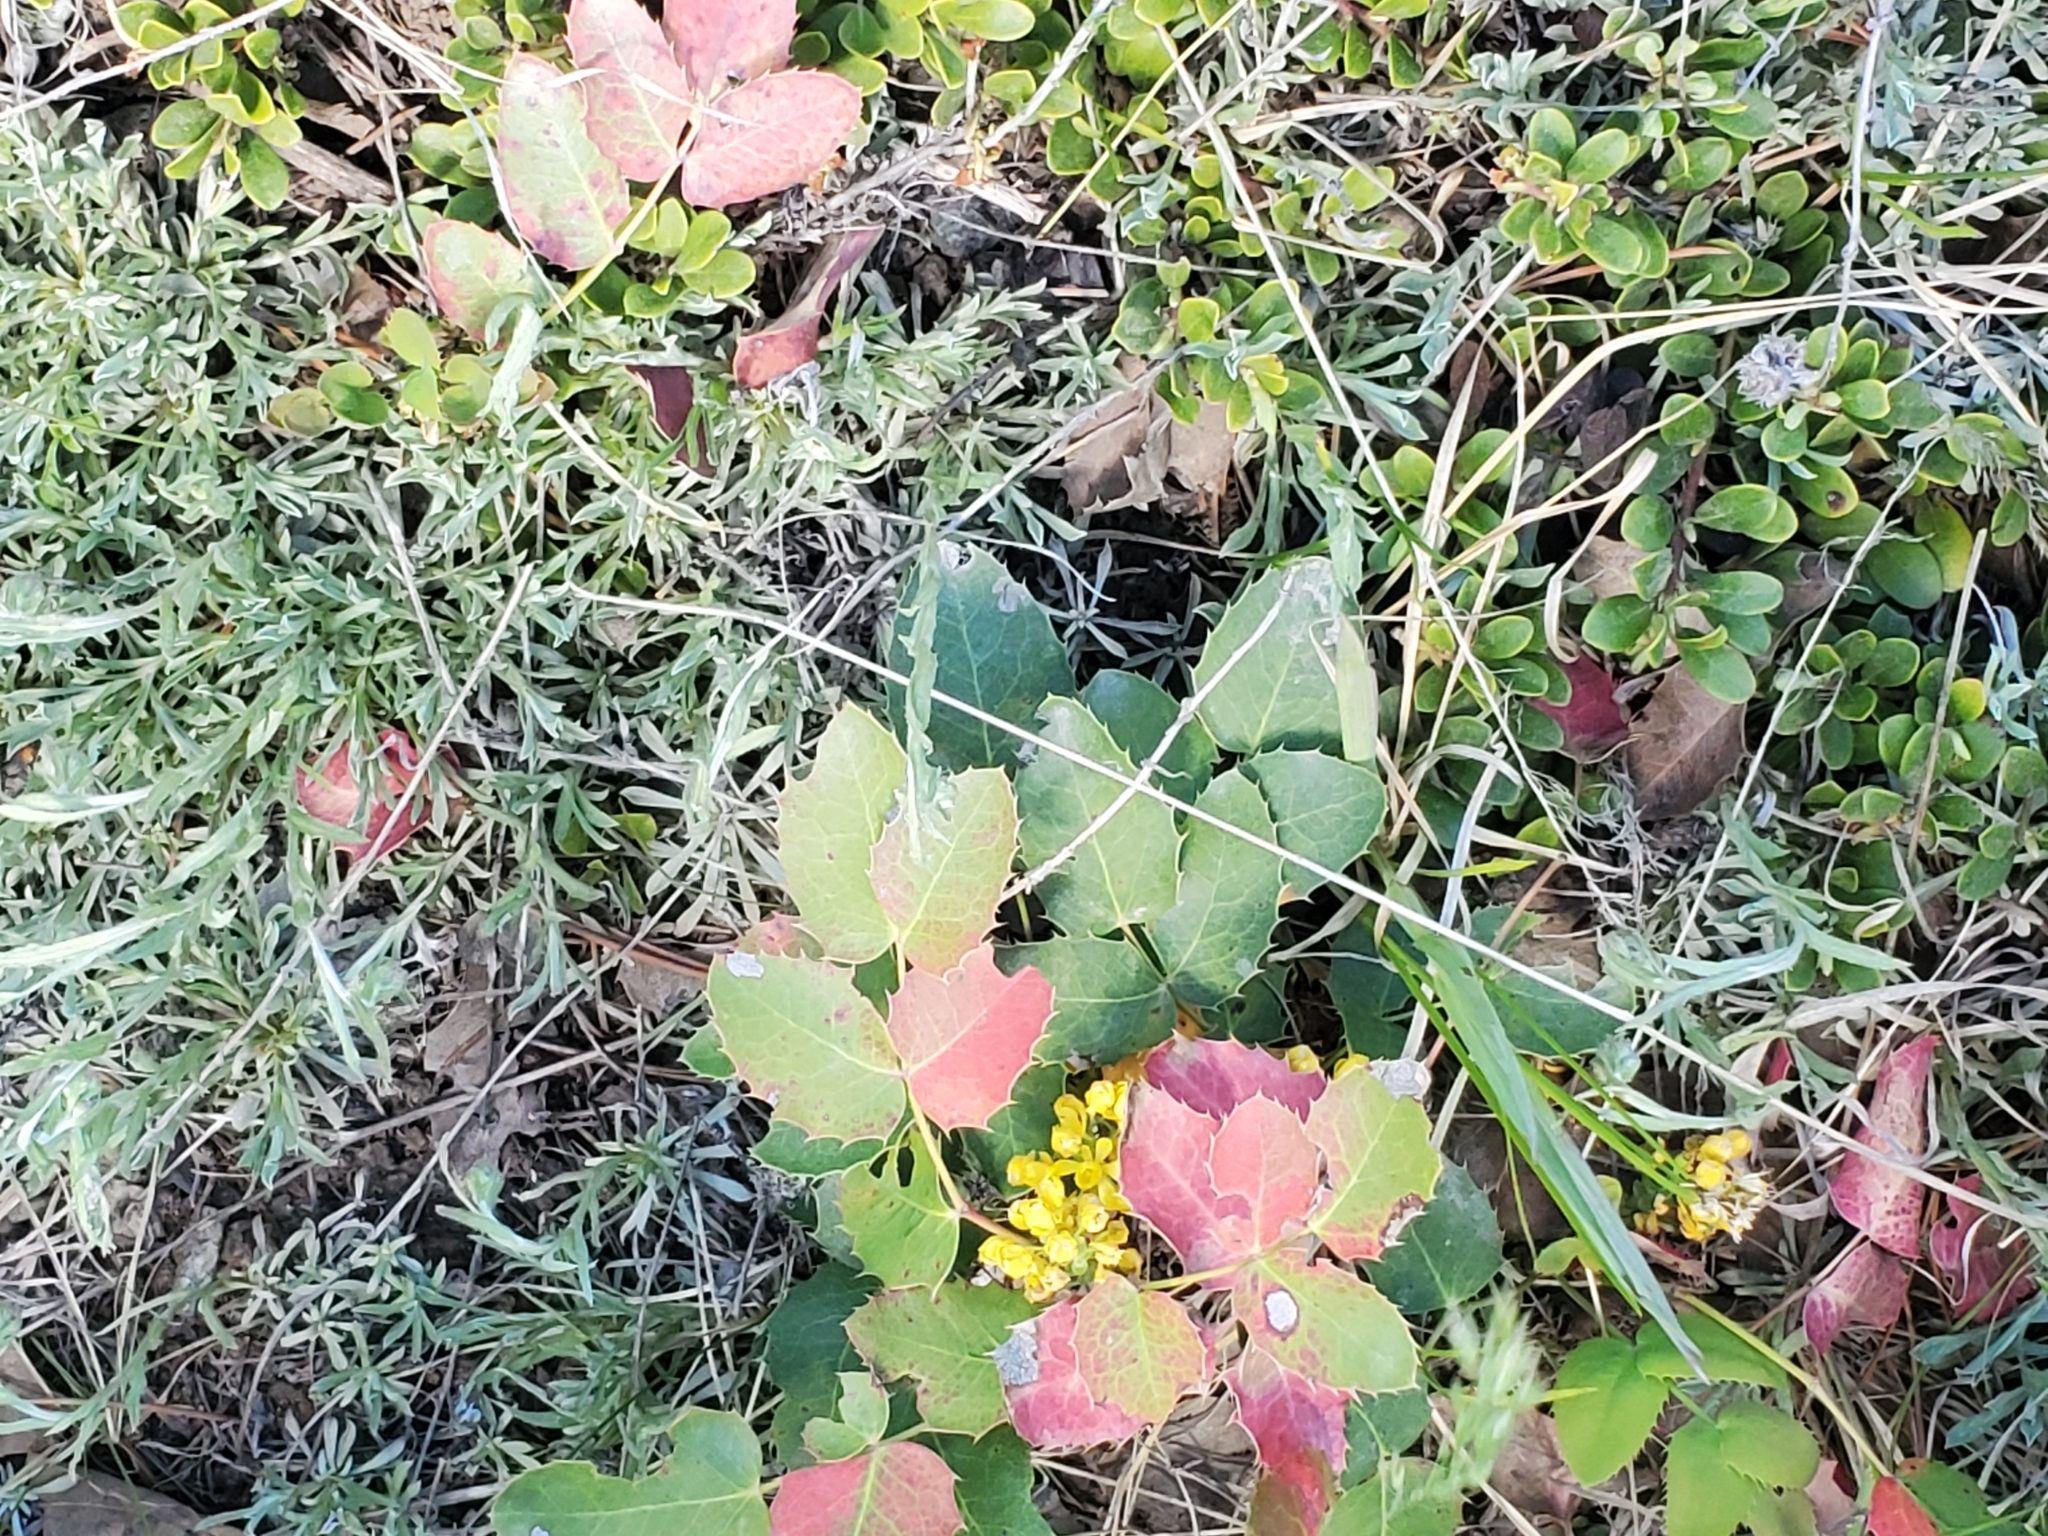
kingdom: Plantae
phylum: Tracheophyta
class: Magnoliopsida
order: Ranunculales
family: Berberidaceae
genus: Mahonia
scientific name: Mahonia repens
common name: Creeping oregon-grape
